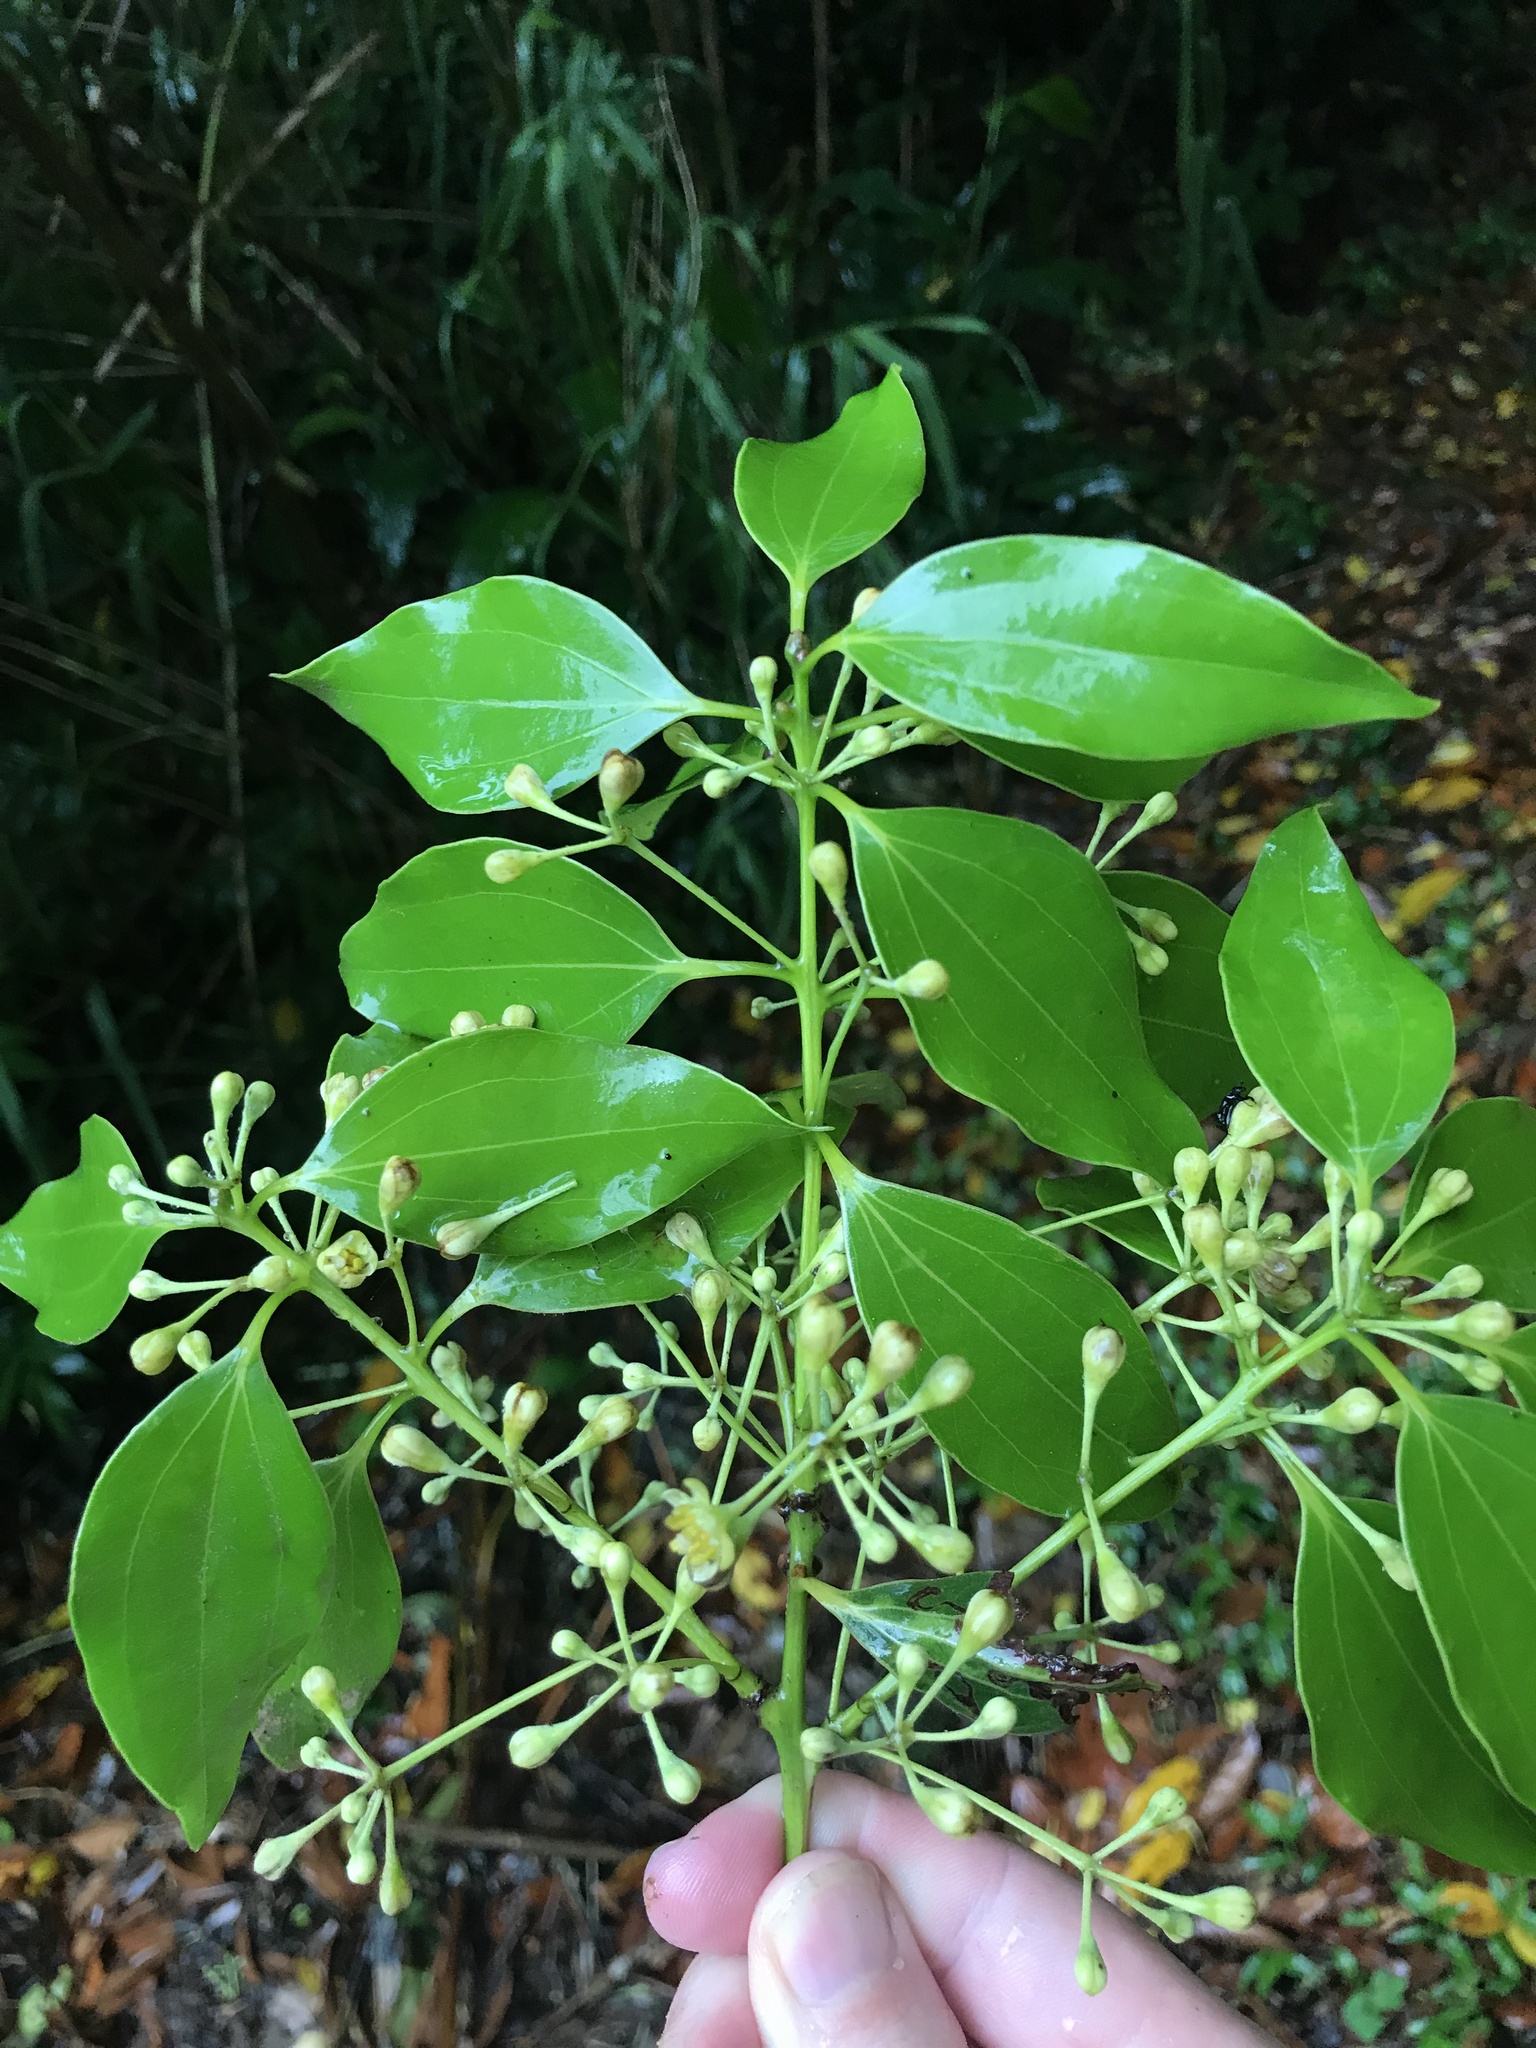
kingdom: Plantae
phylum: Tracheophyta
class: Magnoliopsida
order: Laurales
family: Lauraceae
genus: Cinnamomum
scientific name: Cinnamomum chekiangense
